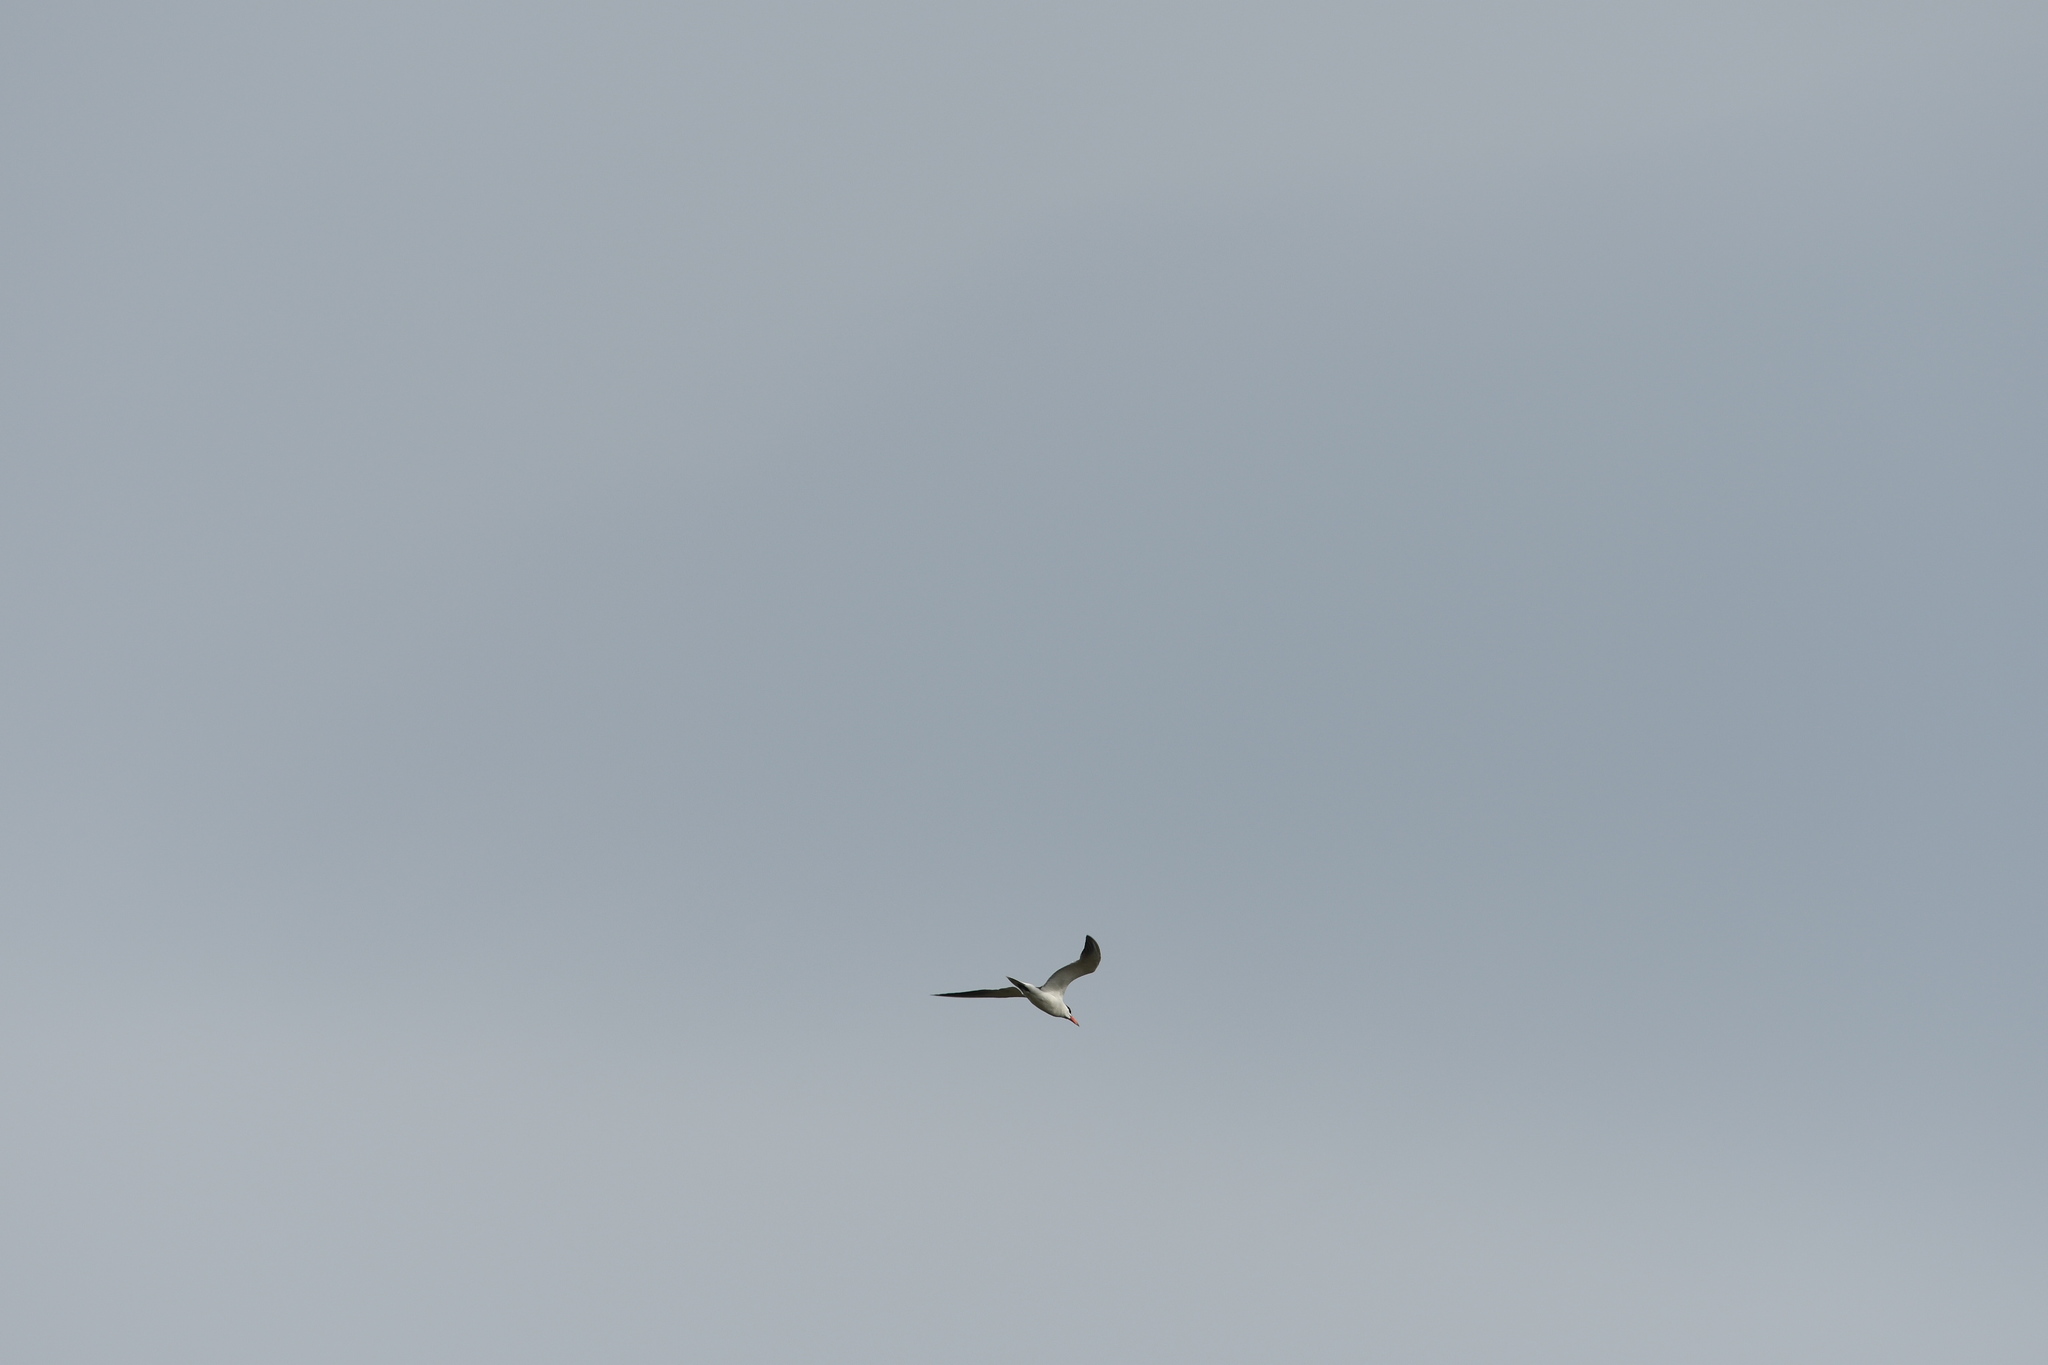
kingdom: Animalia
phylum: Chordata
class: Aves
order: Charadriiformes
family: Laridae
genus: Hydroprogne
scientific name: Hydroprogne caspia
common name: Caspian tern
